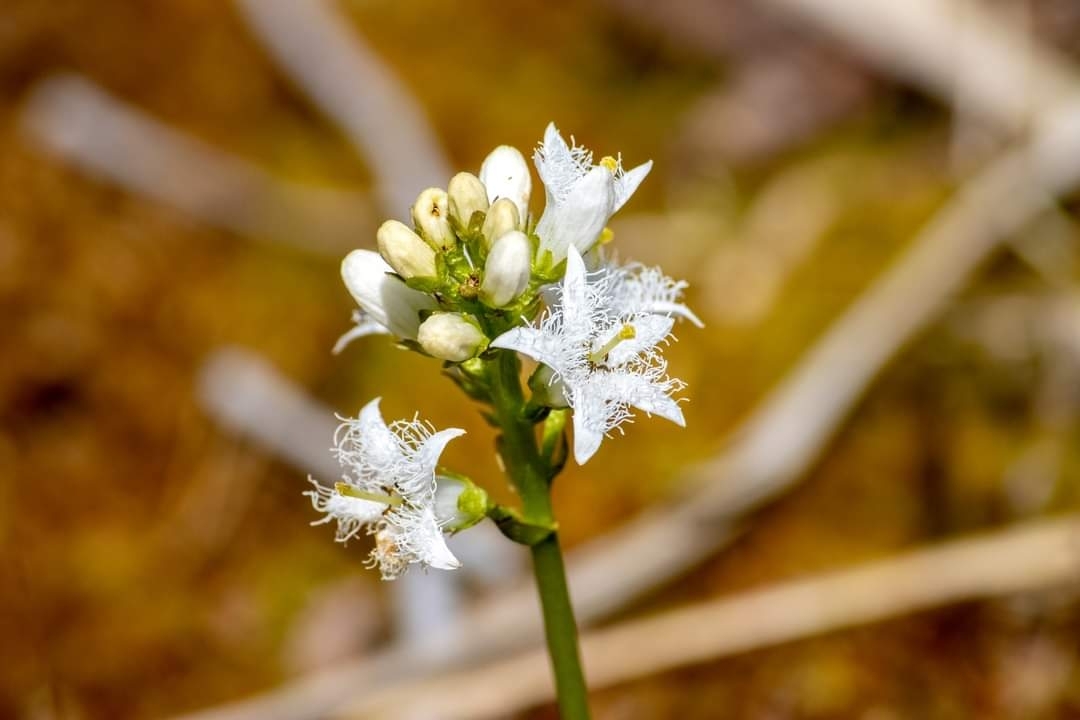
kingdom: Plantae
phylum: Tracheophyta
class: Magnoliopsida
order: Asterales
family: Menyanthaceae
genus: Menyanthes
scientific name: Menyanthes trifoliata
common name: Bogbean
